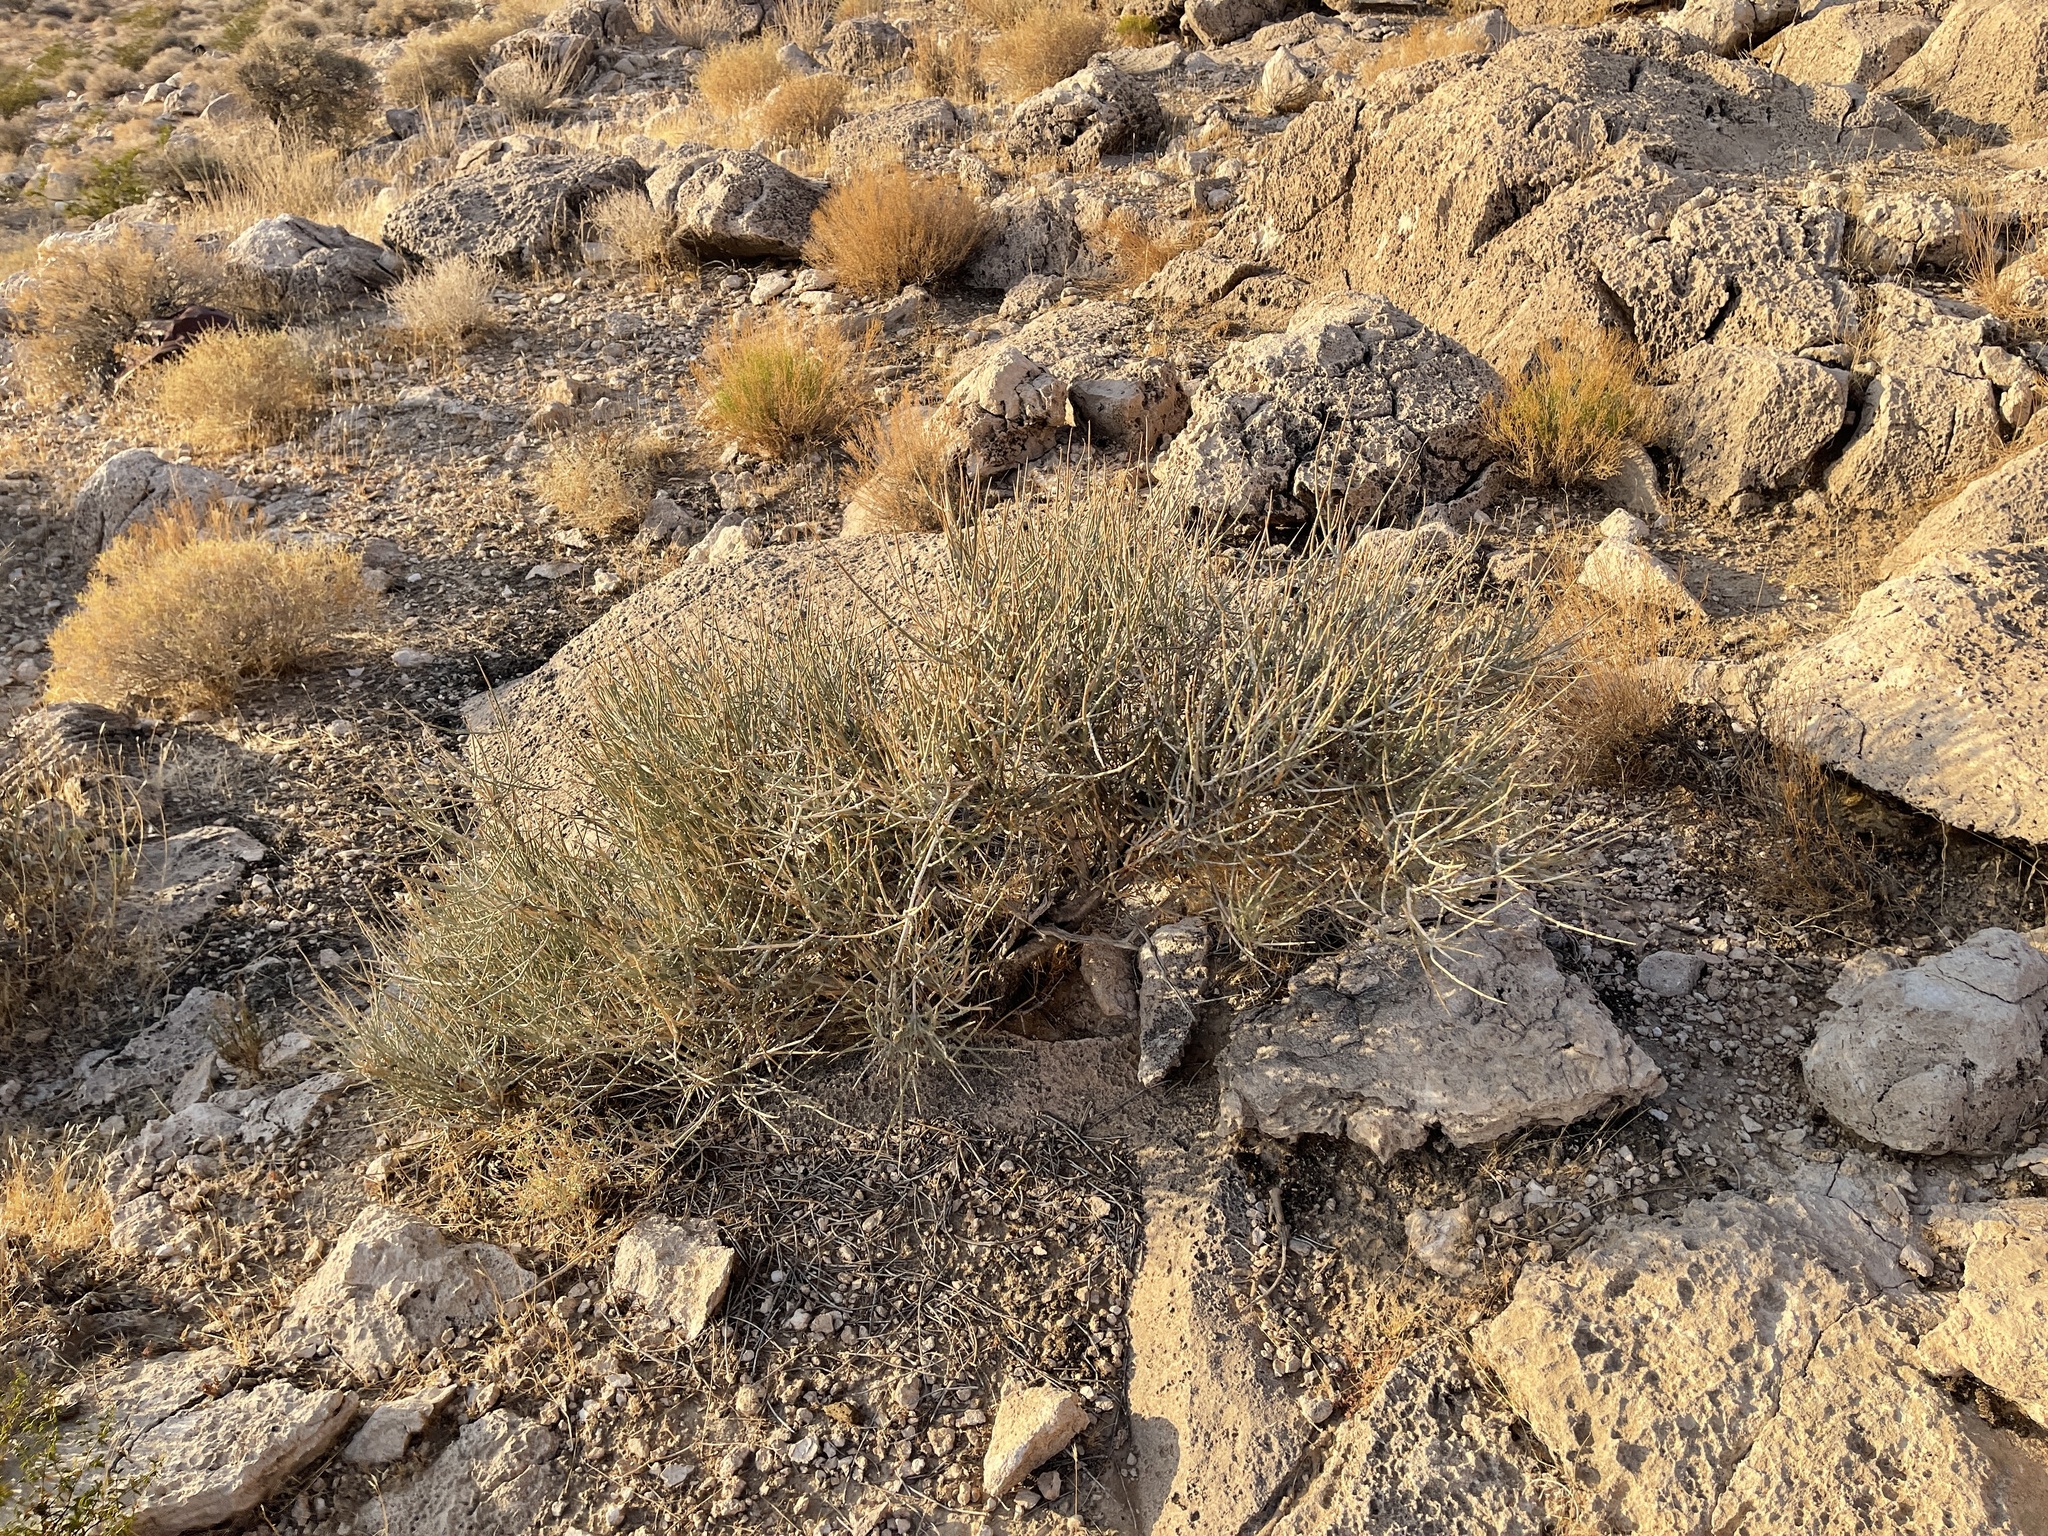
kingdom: Plantae
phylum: Tracheophyta
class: Gnetopsida
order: Ephedrales
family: Ephedraceae
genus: Ephedra
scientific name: Ephedra nevadensis
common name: Gray ephedra
